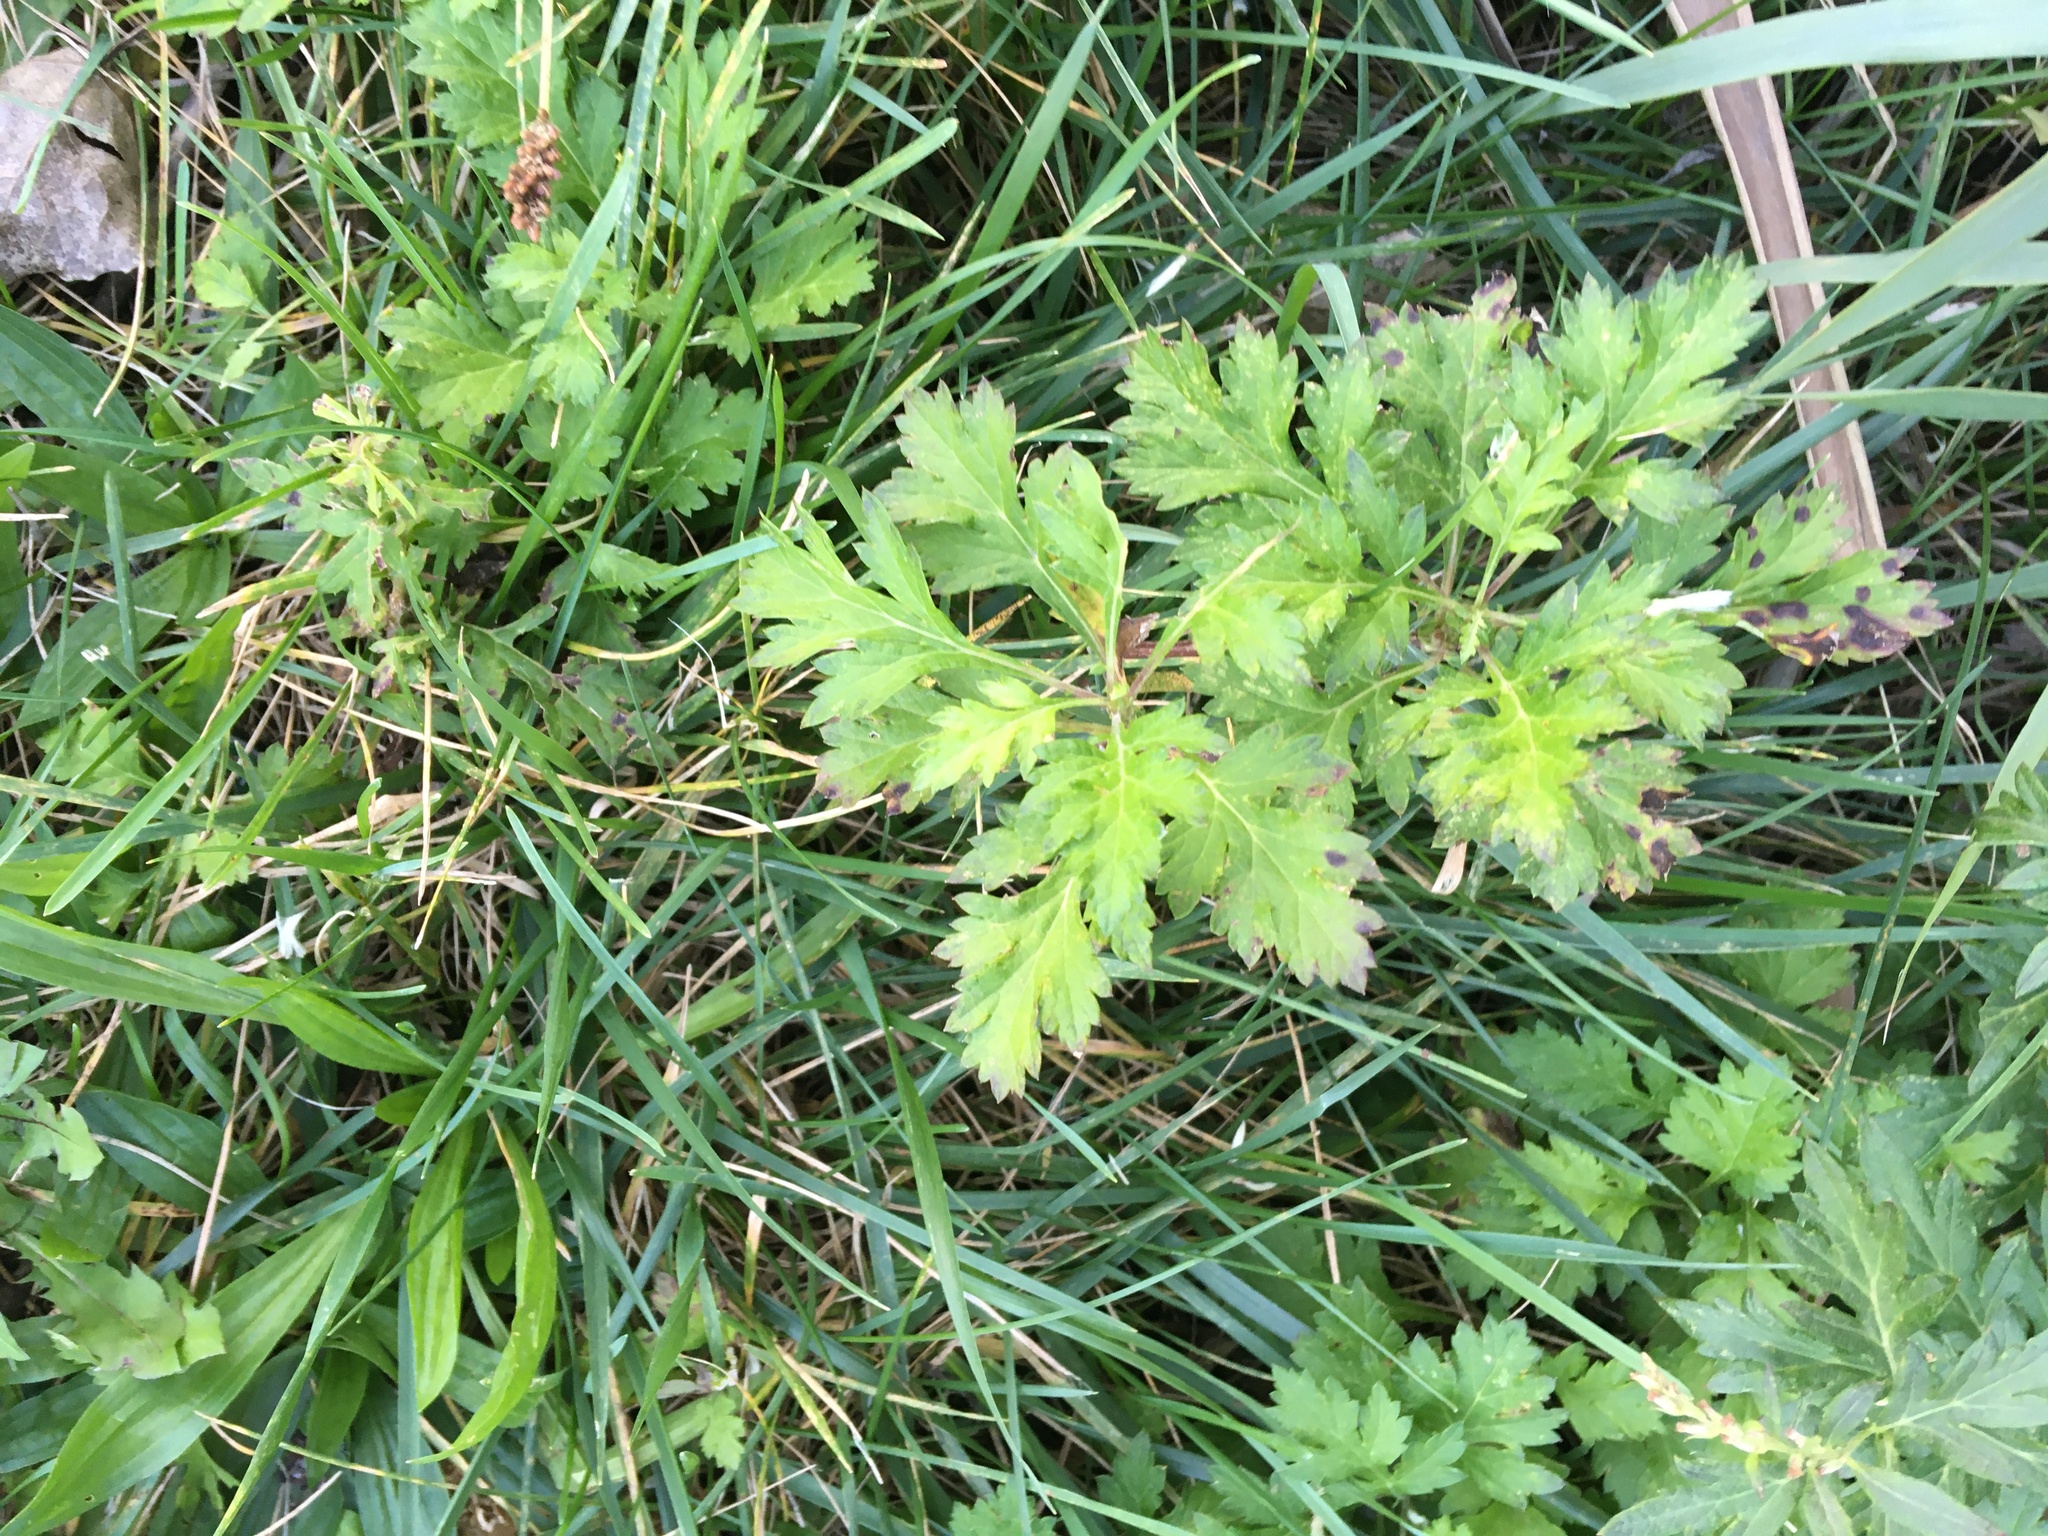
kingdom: Plantae
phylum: Tracheophyta
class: Magnoliopsida
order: Asterales
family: Asteraceae
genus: Artemisia
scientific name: Artemisia vulgaris
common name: Mugwort
